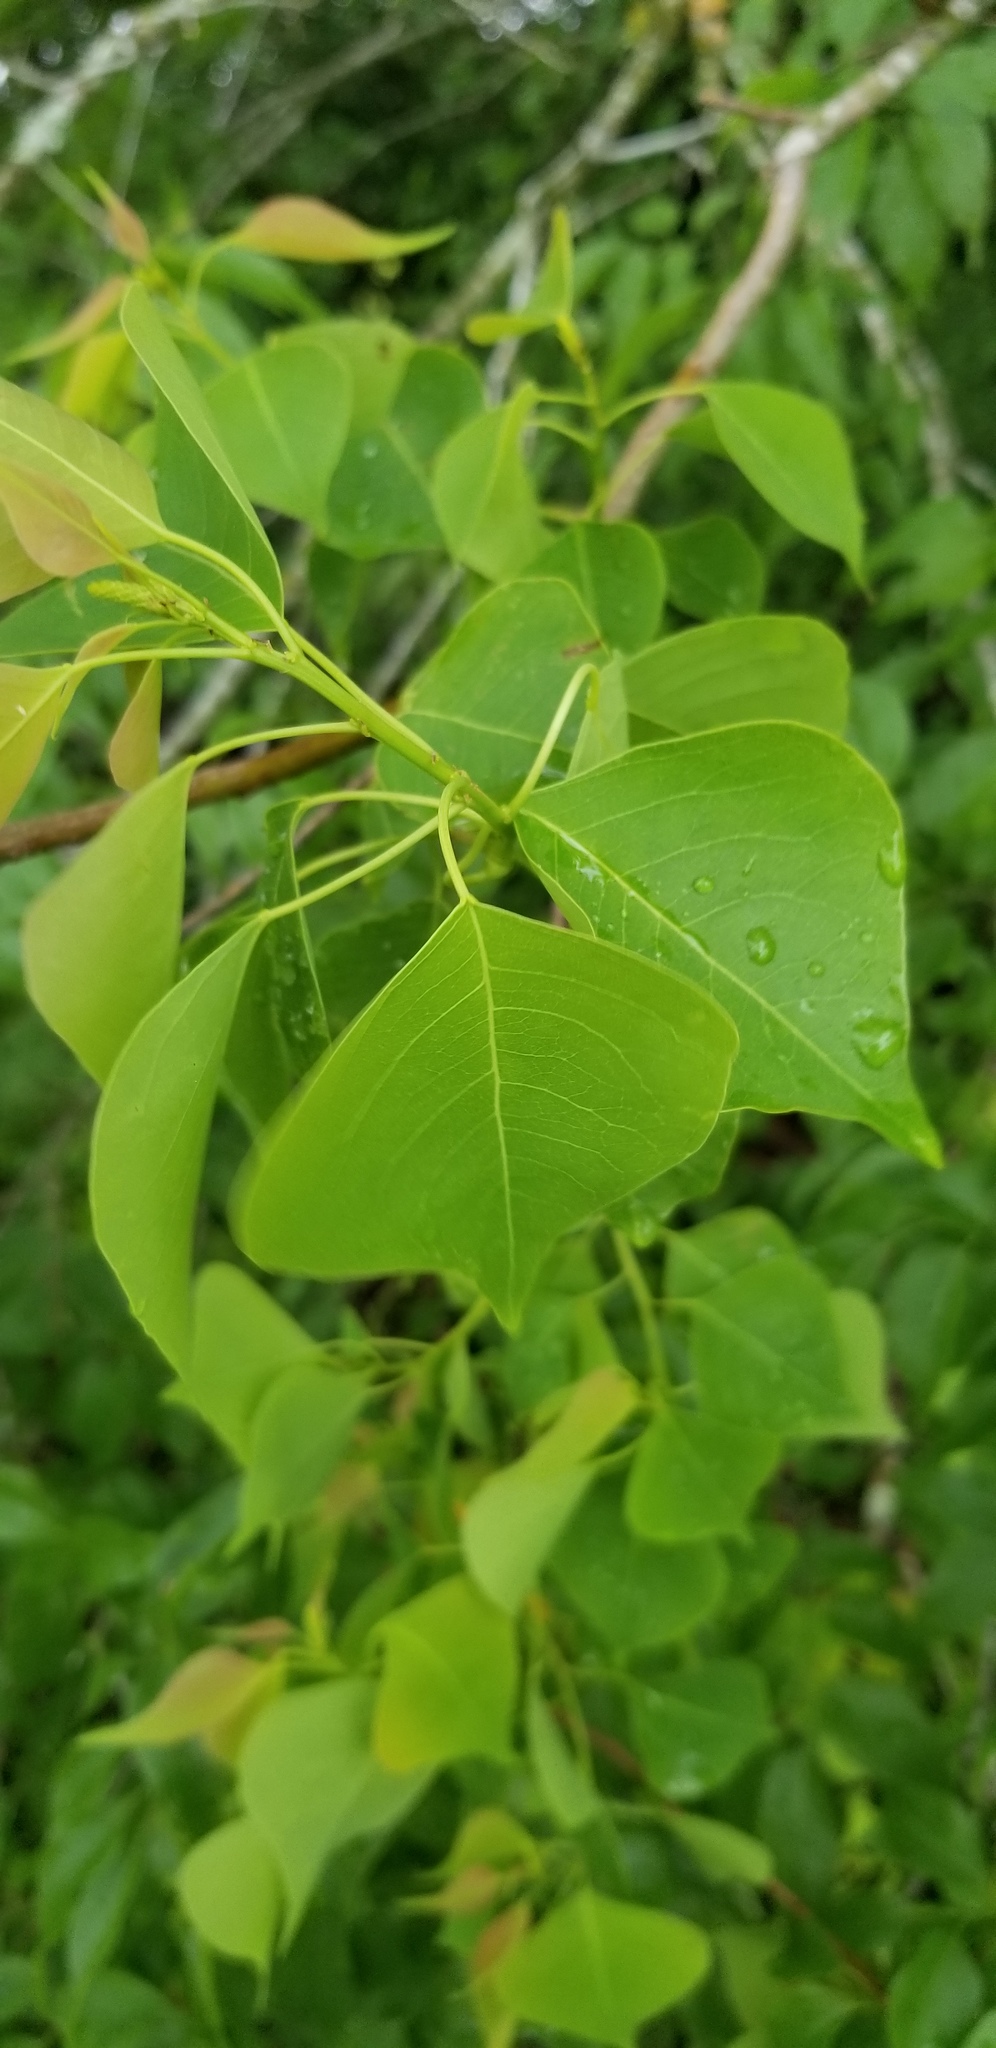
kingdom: Plantae
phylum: Tracheophyta
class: Magnoliopsida
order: Malpighiales
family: Euphorbiaceae
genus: Triadica
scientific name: Triadica sebifera
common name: Chinese tallow
